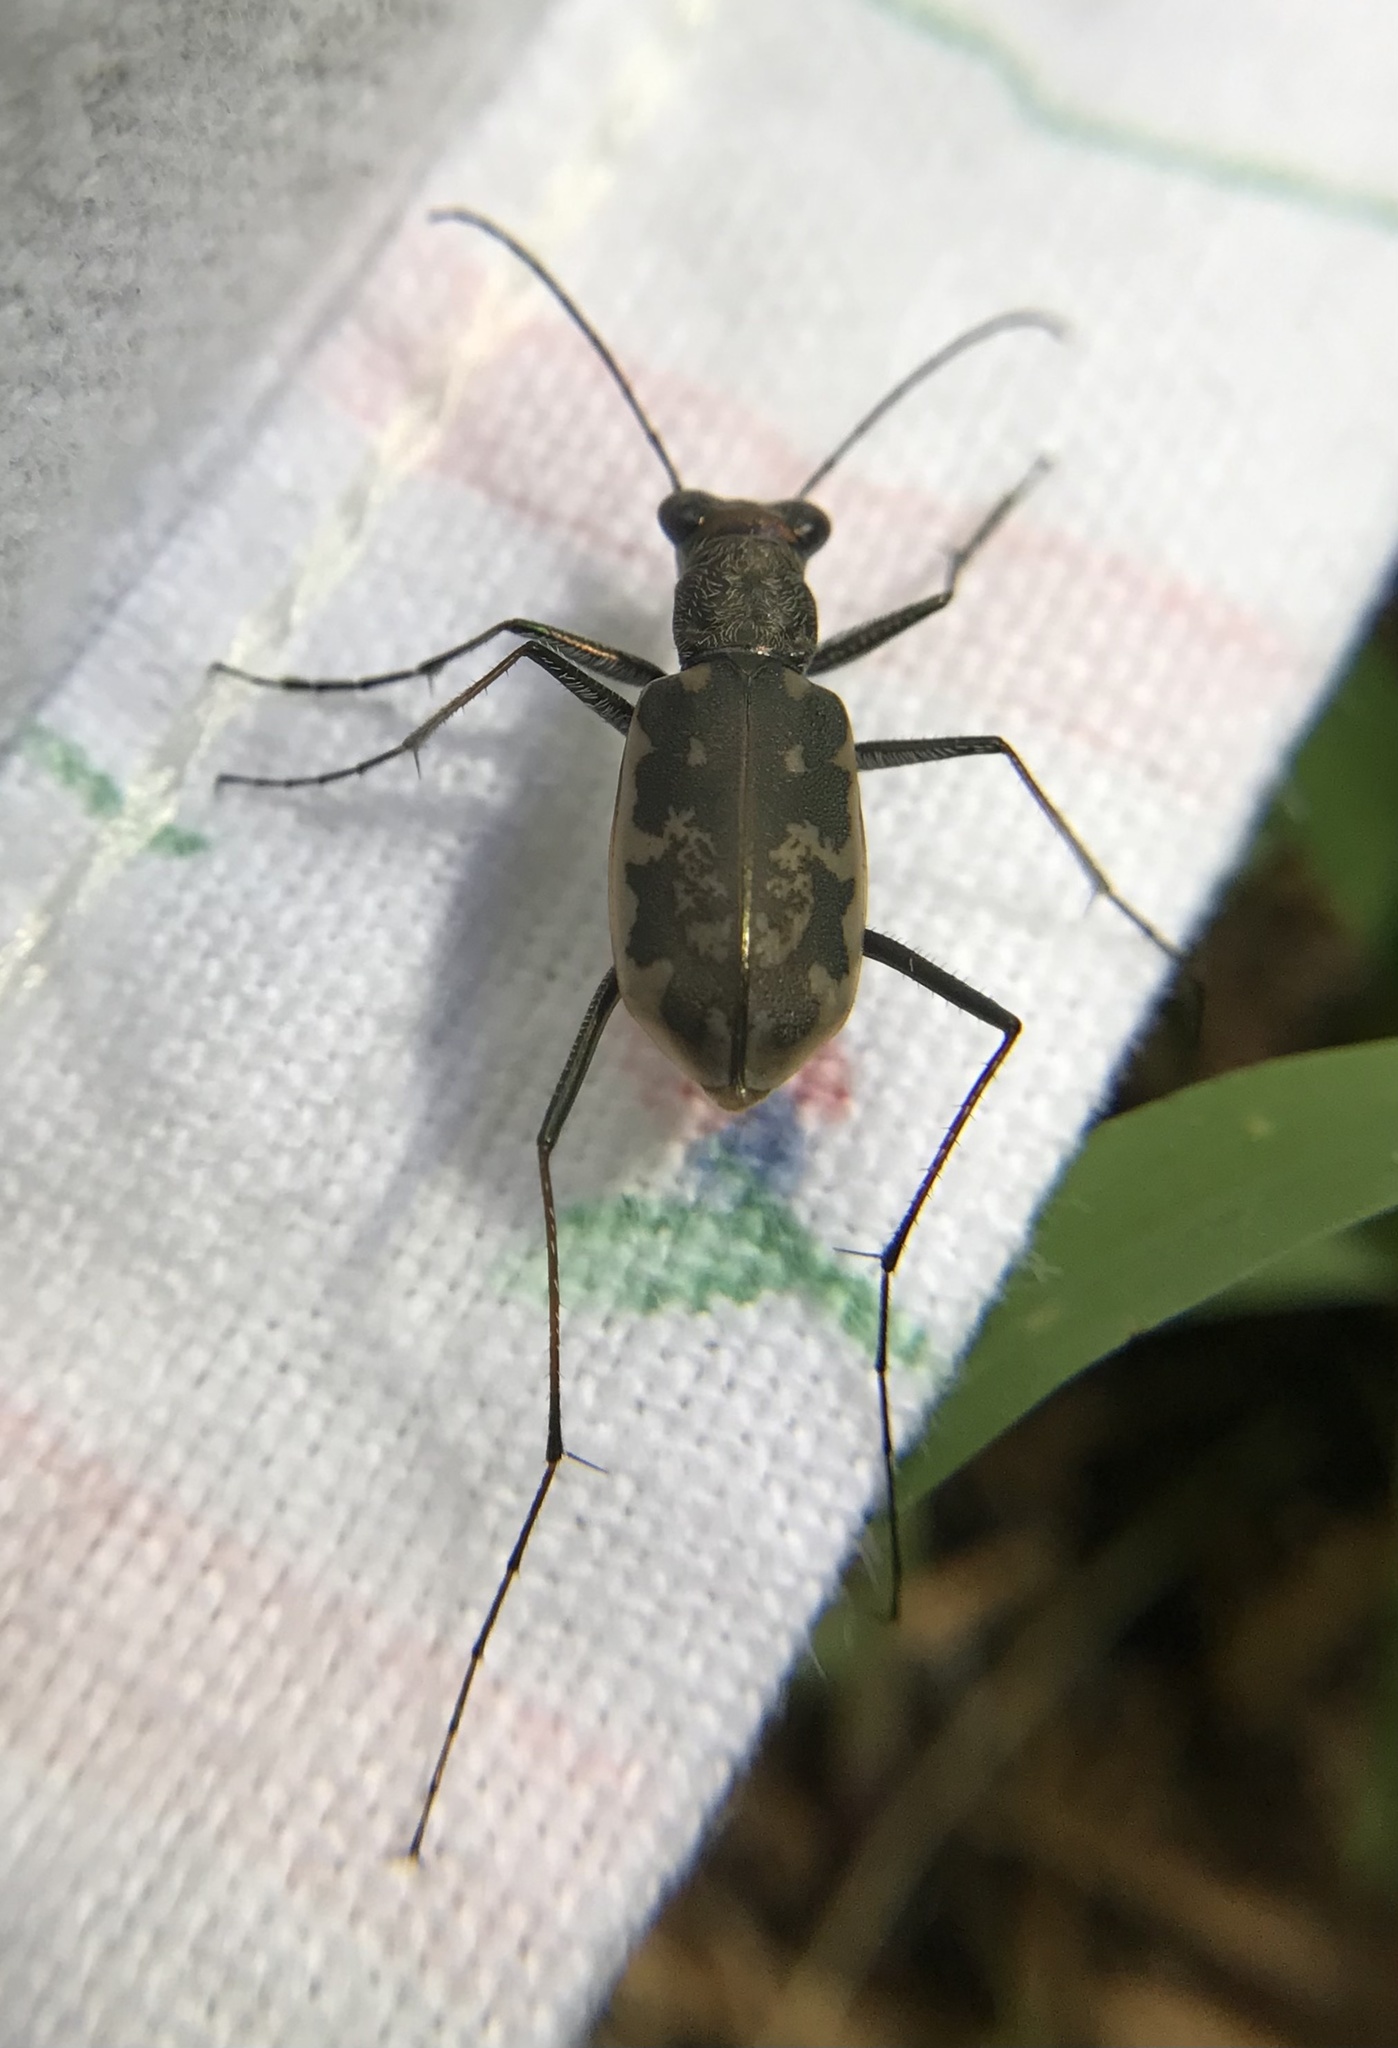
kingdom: Animalia
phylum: Arthropoda
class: Insecta
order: Coleoptera
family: Carabidae
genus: Ellipsoptera
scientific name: Ellipsoptera marginata
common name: Margined tiger beetle
